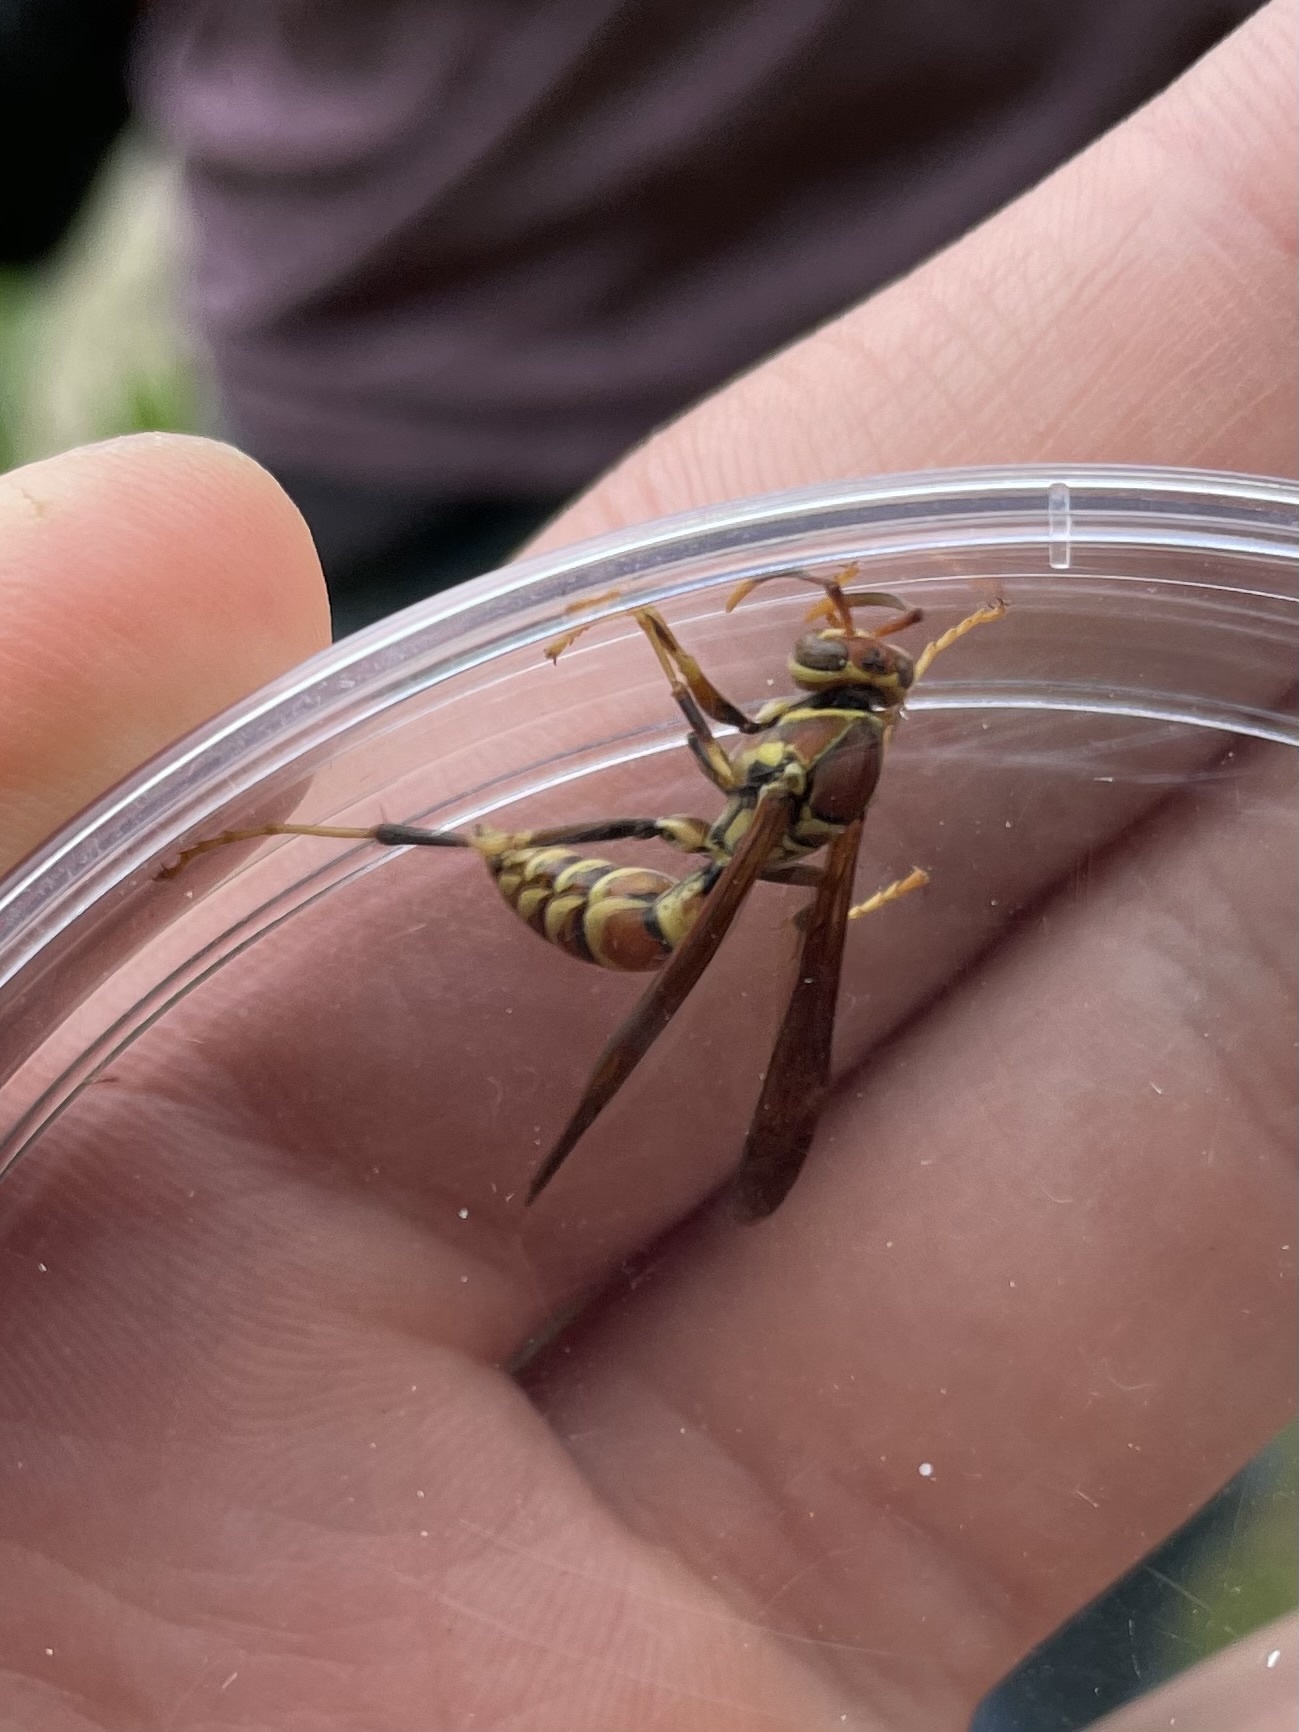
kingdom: Animalia
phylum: Arthropoda
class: Insecta
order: Hymenoptera
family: Eumenidae
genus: Polistes
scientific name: Polistes exclamans
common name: Paper wasp
